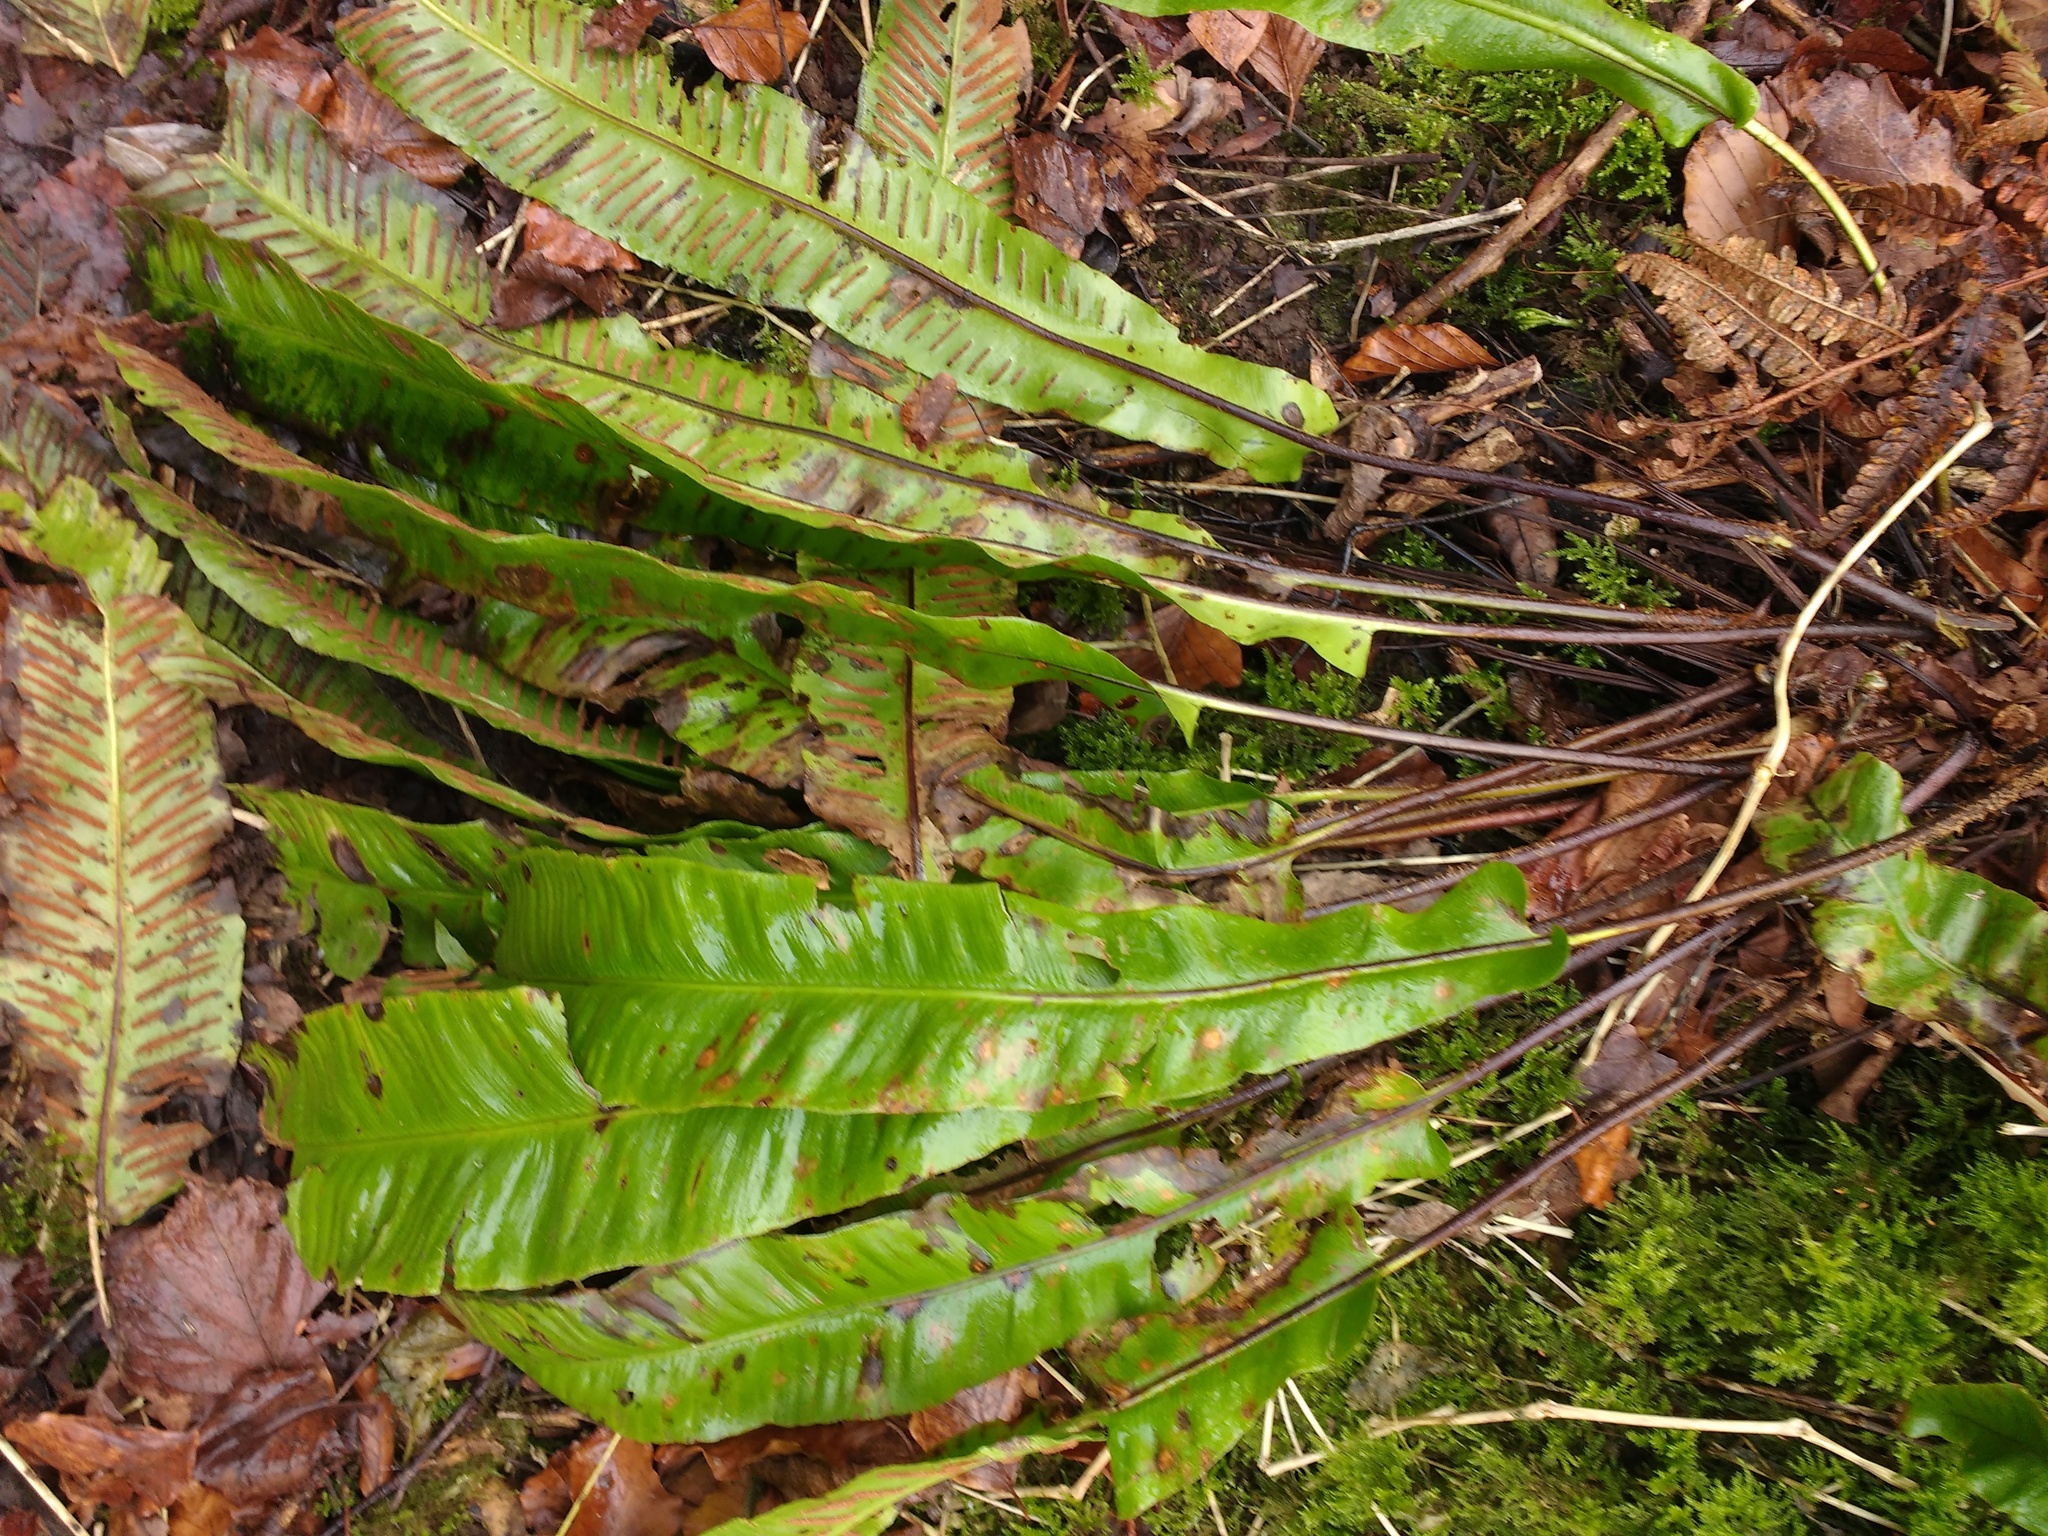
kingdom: Plantae
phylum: Tracheophyta
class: Polypodiopsida
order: Polypodiales
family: Aspleniaceae
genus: Asplenium
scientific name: Asplenium scolopendrium
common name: Hart's-tongue fern
